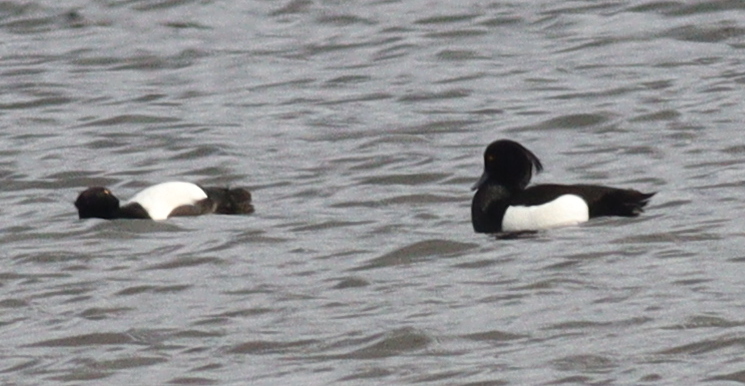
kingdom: Animalia
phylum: Chordata
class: Aves
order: Anseriformes
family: Anatidae
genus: Aythya
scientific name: Aythya fuligula
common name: Tufted duck
